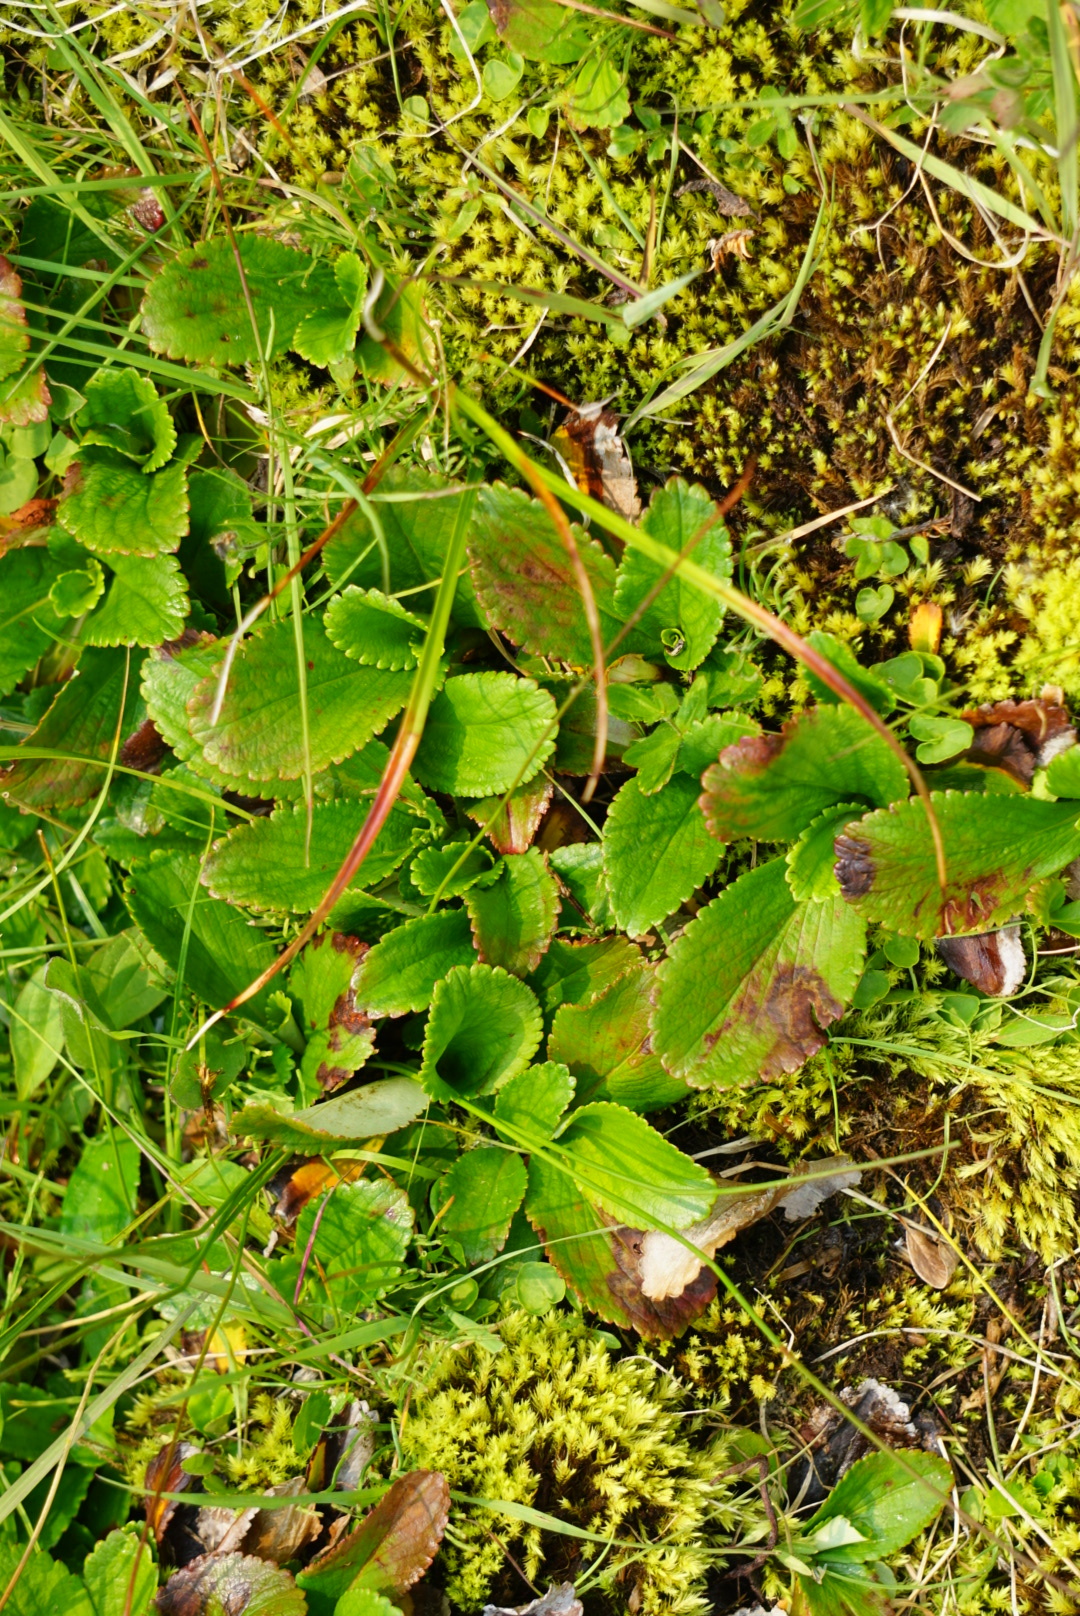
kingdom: Plantae
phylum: Tracheophyta
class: Magnoliopsida
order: Saxifragales
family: Saxifragaceae
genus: Leptarrhena
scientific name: Leptarrhena pyrolifolia
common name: Leatherleaf-saxifrage
